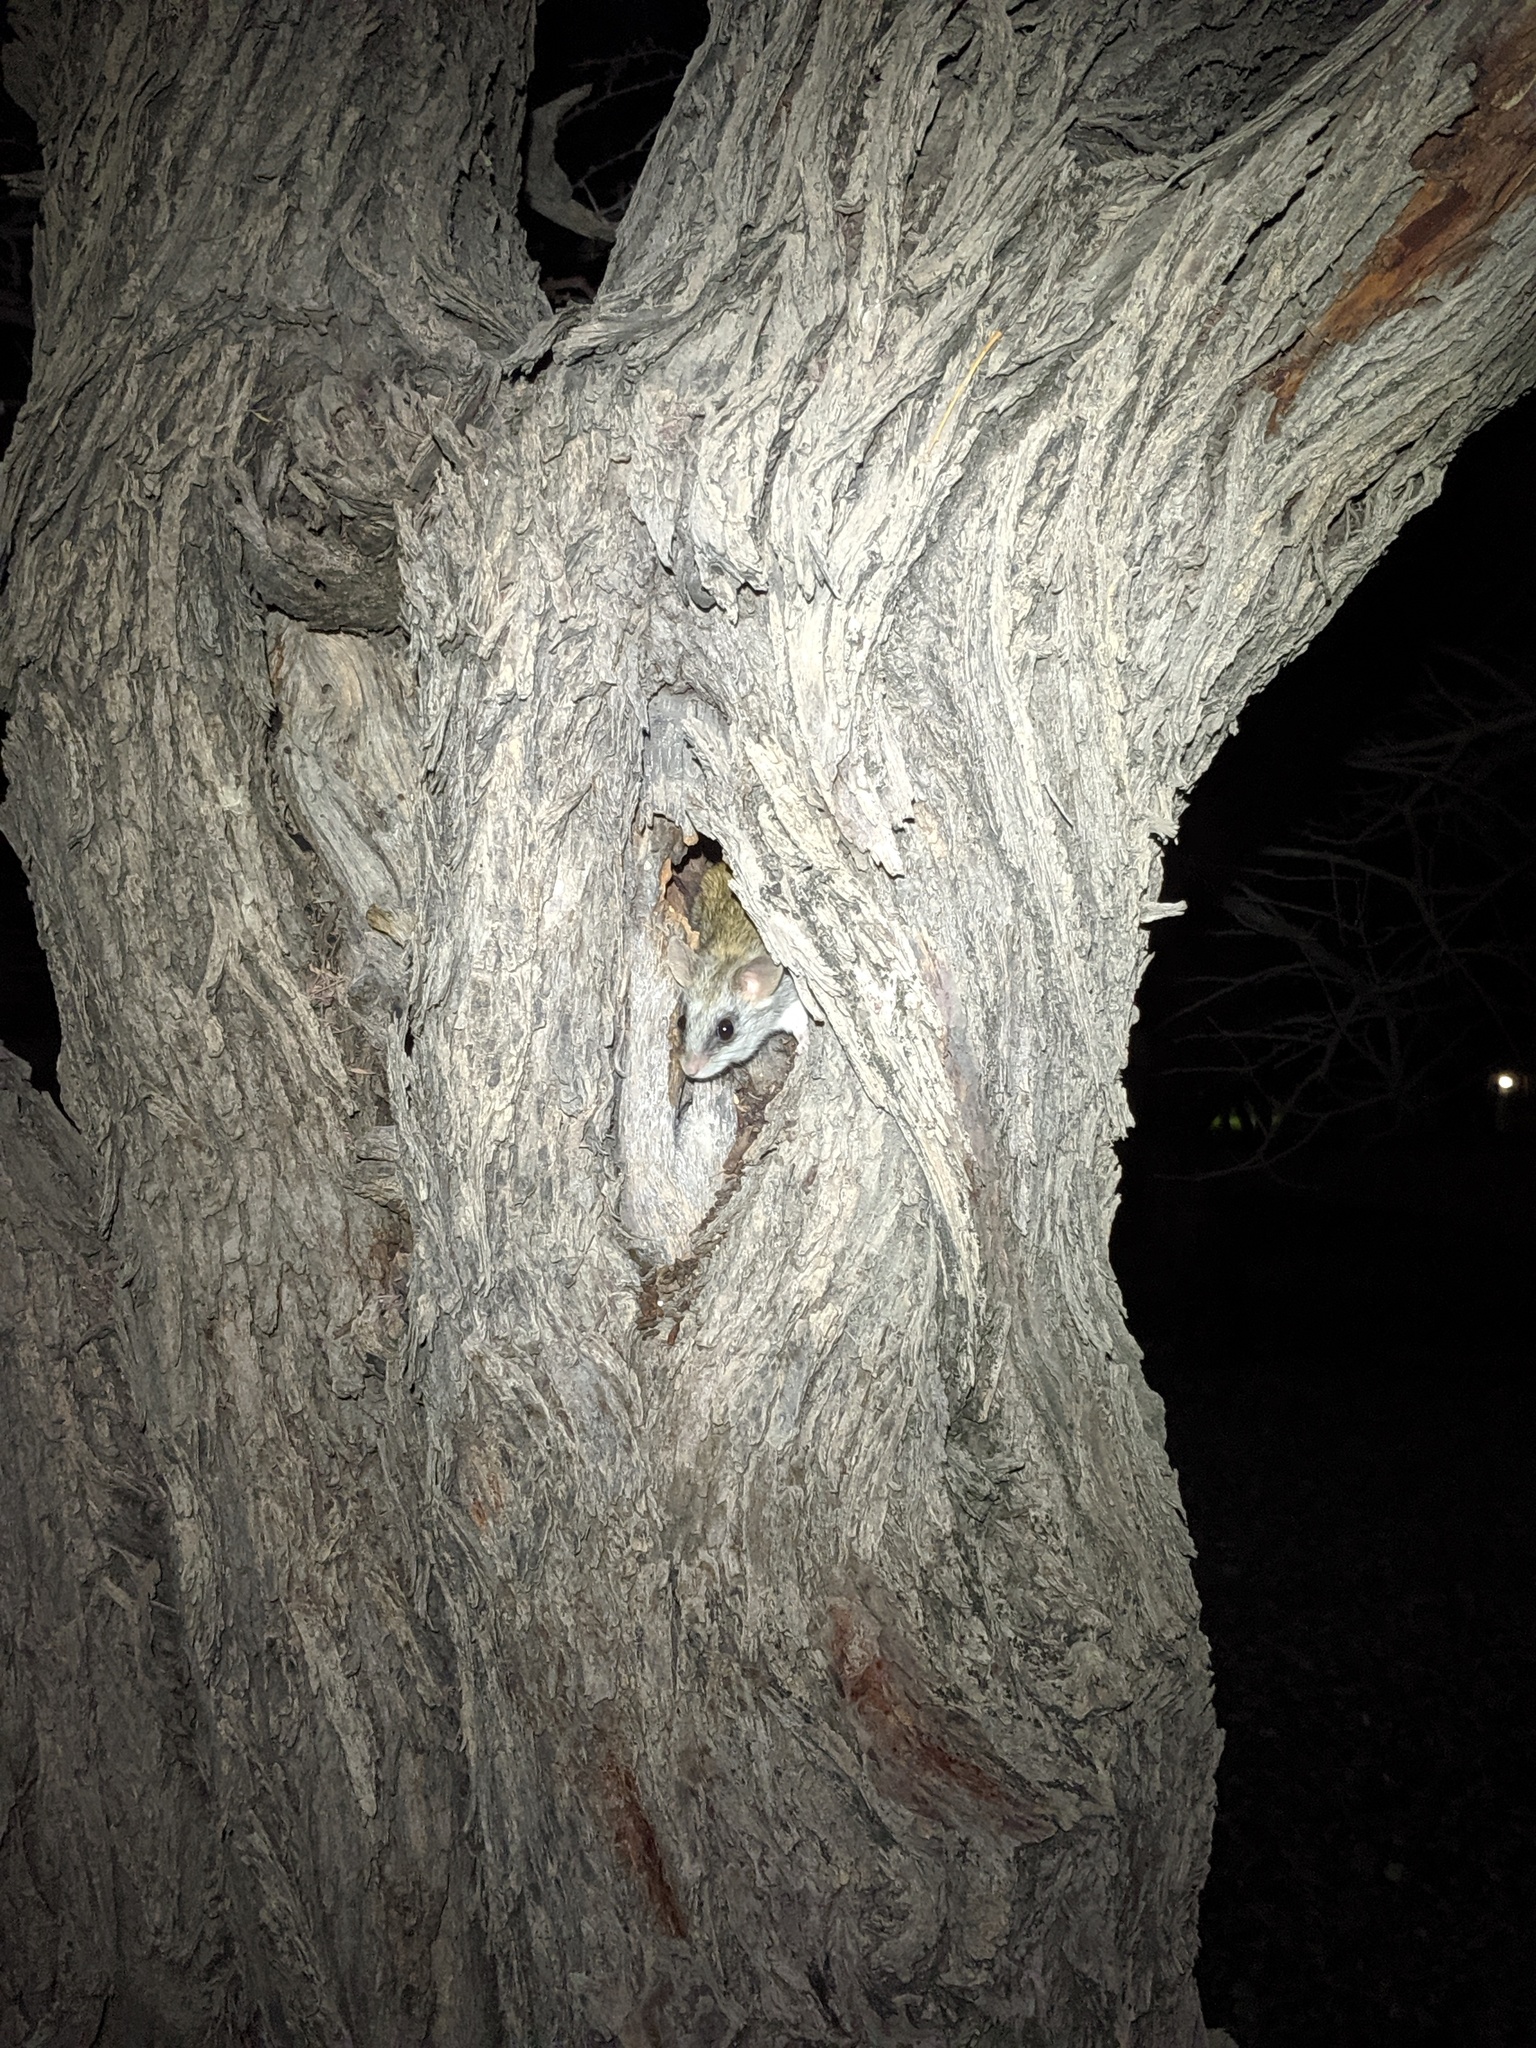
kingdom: Animalia
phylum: Chordata
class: Mammalia
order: Rodentia
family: Muridae
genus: Thallomys
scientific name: Thallomys nigricauda
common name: Black-tailed thallomys
